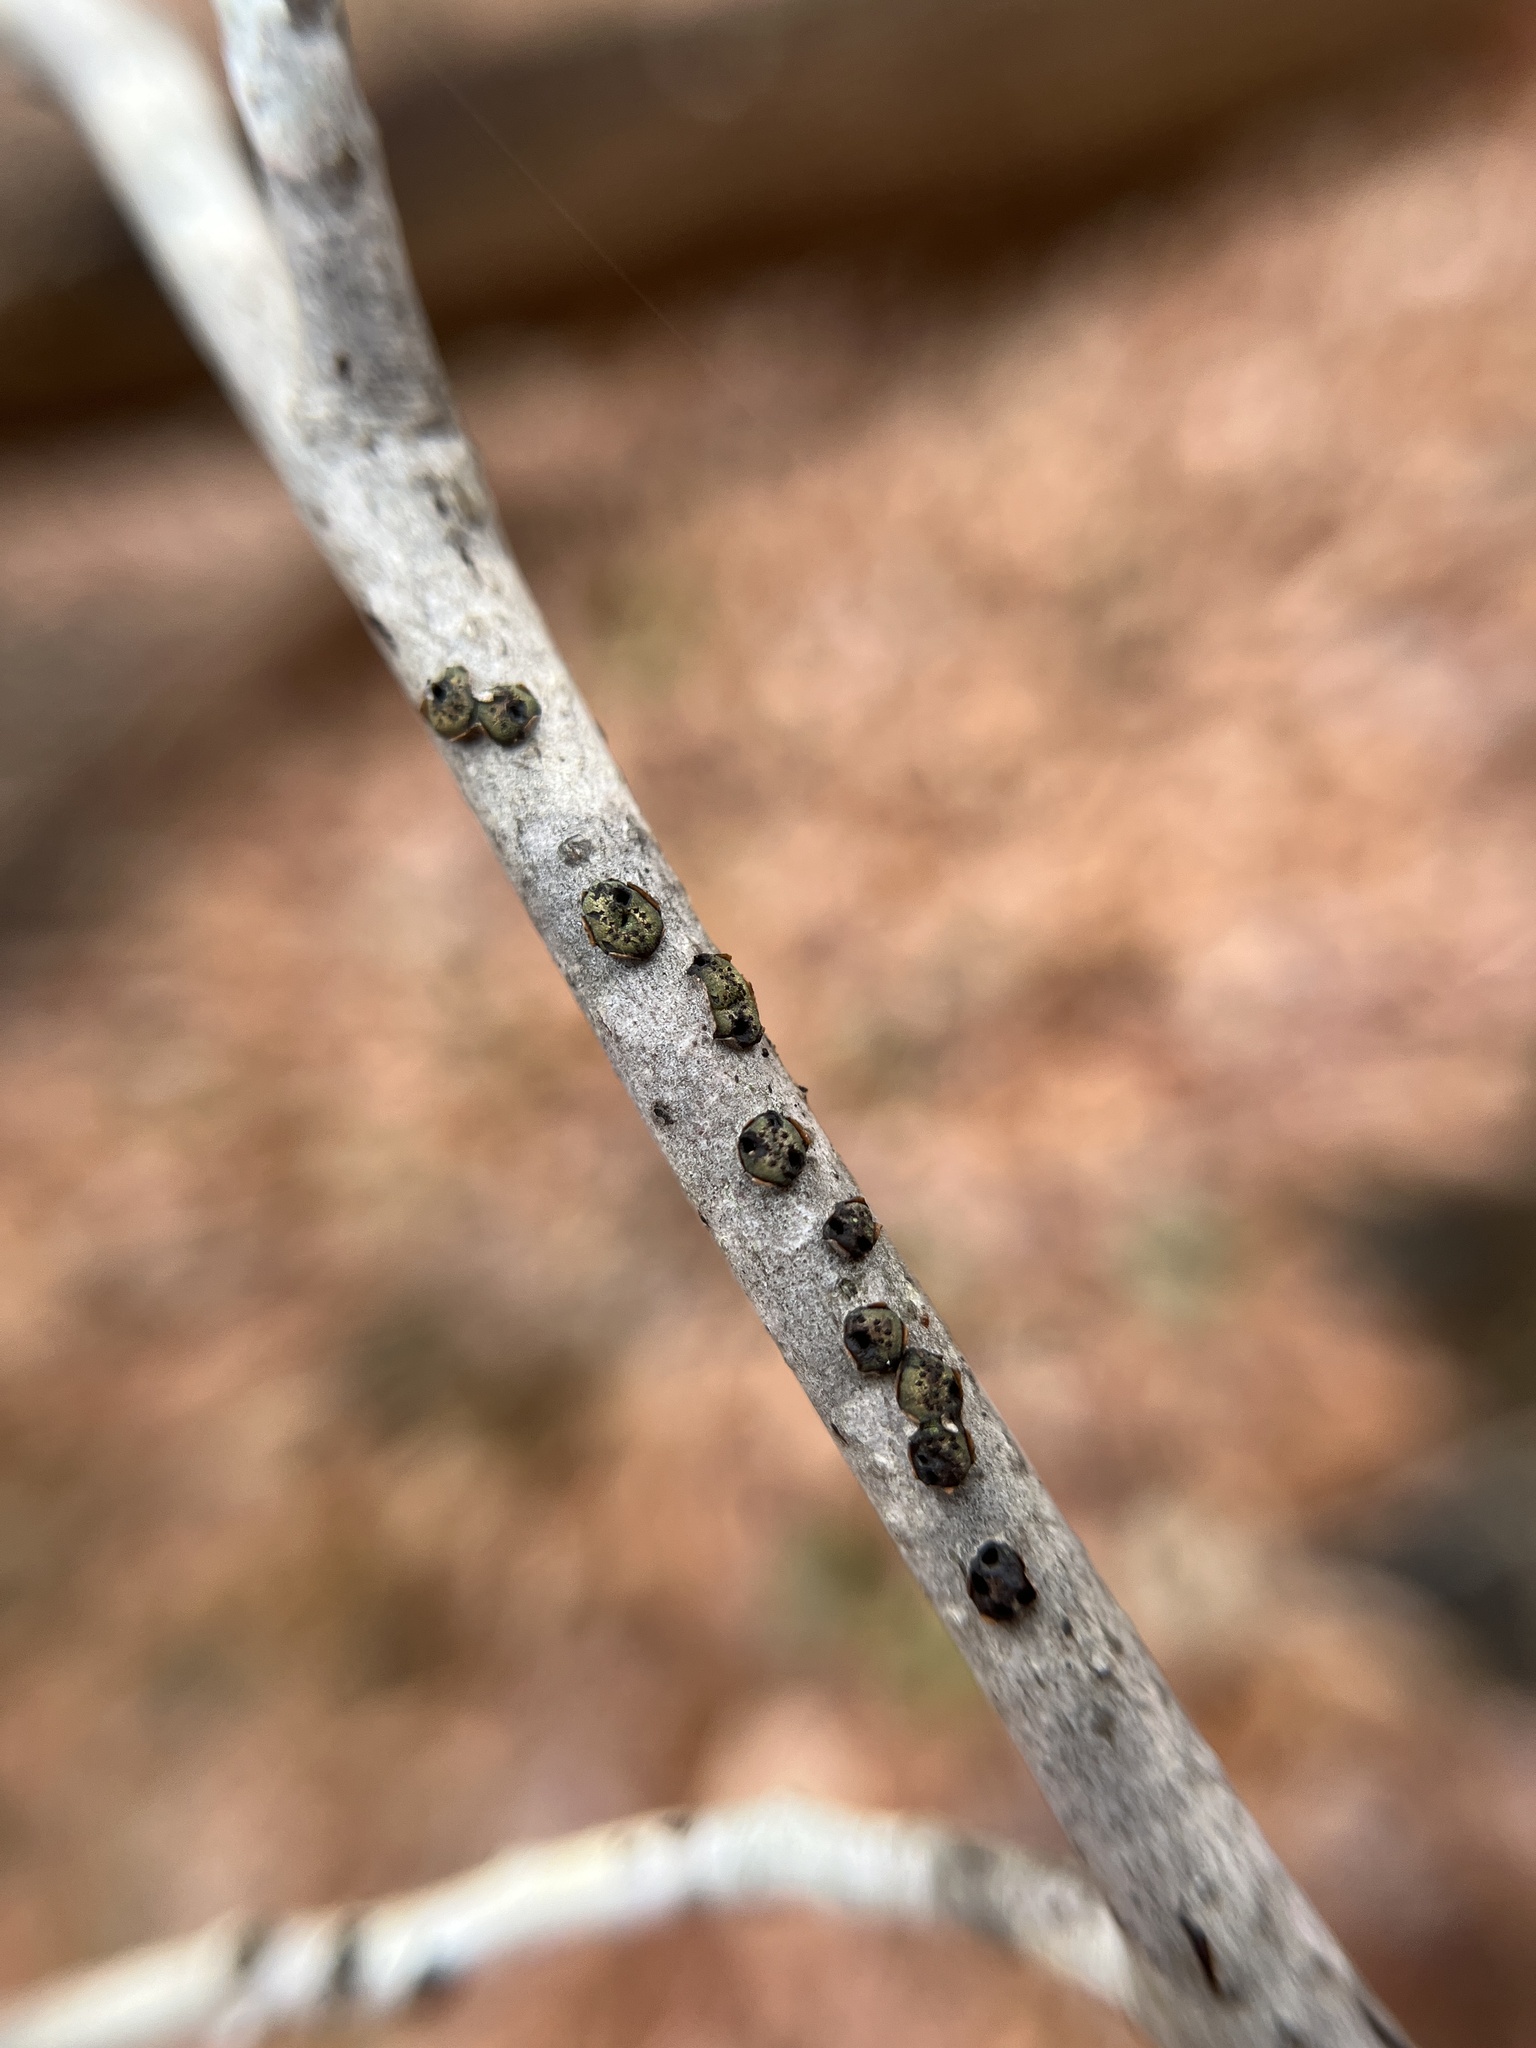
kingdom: Fungi
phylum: Ascomycota
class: Sordariomycetes
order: Xylariales
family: Diatrypaceae
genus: Diatrype
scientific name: Diatrype virescens
